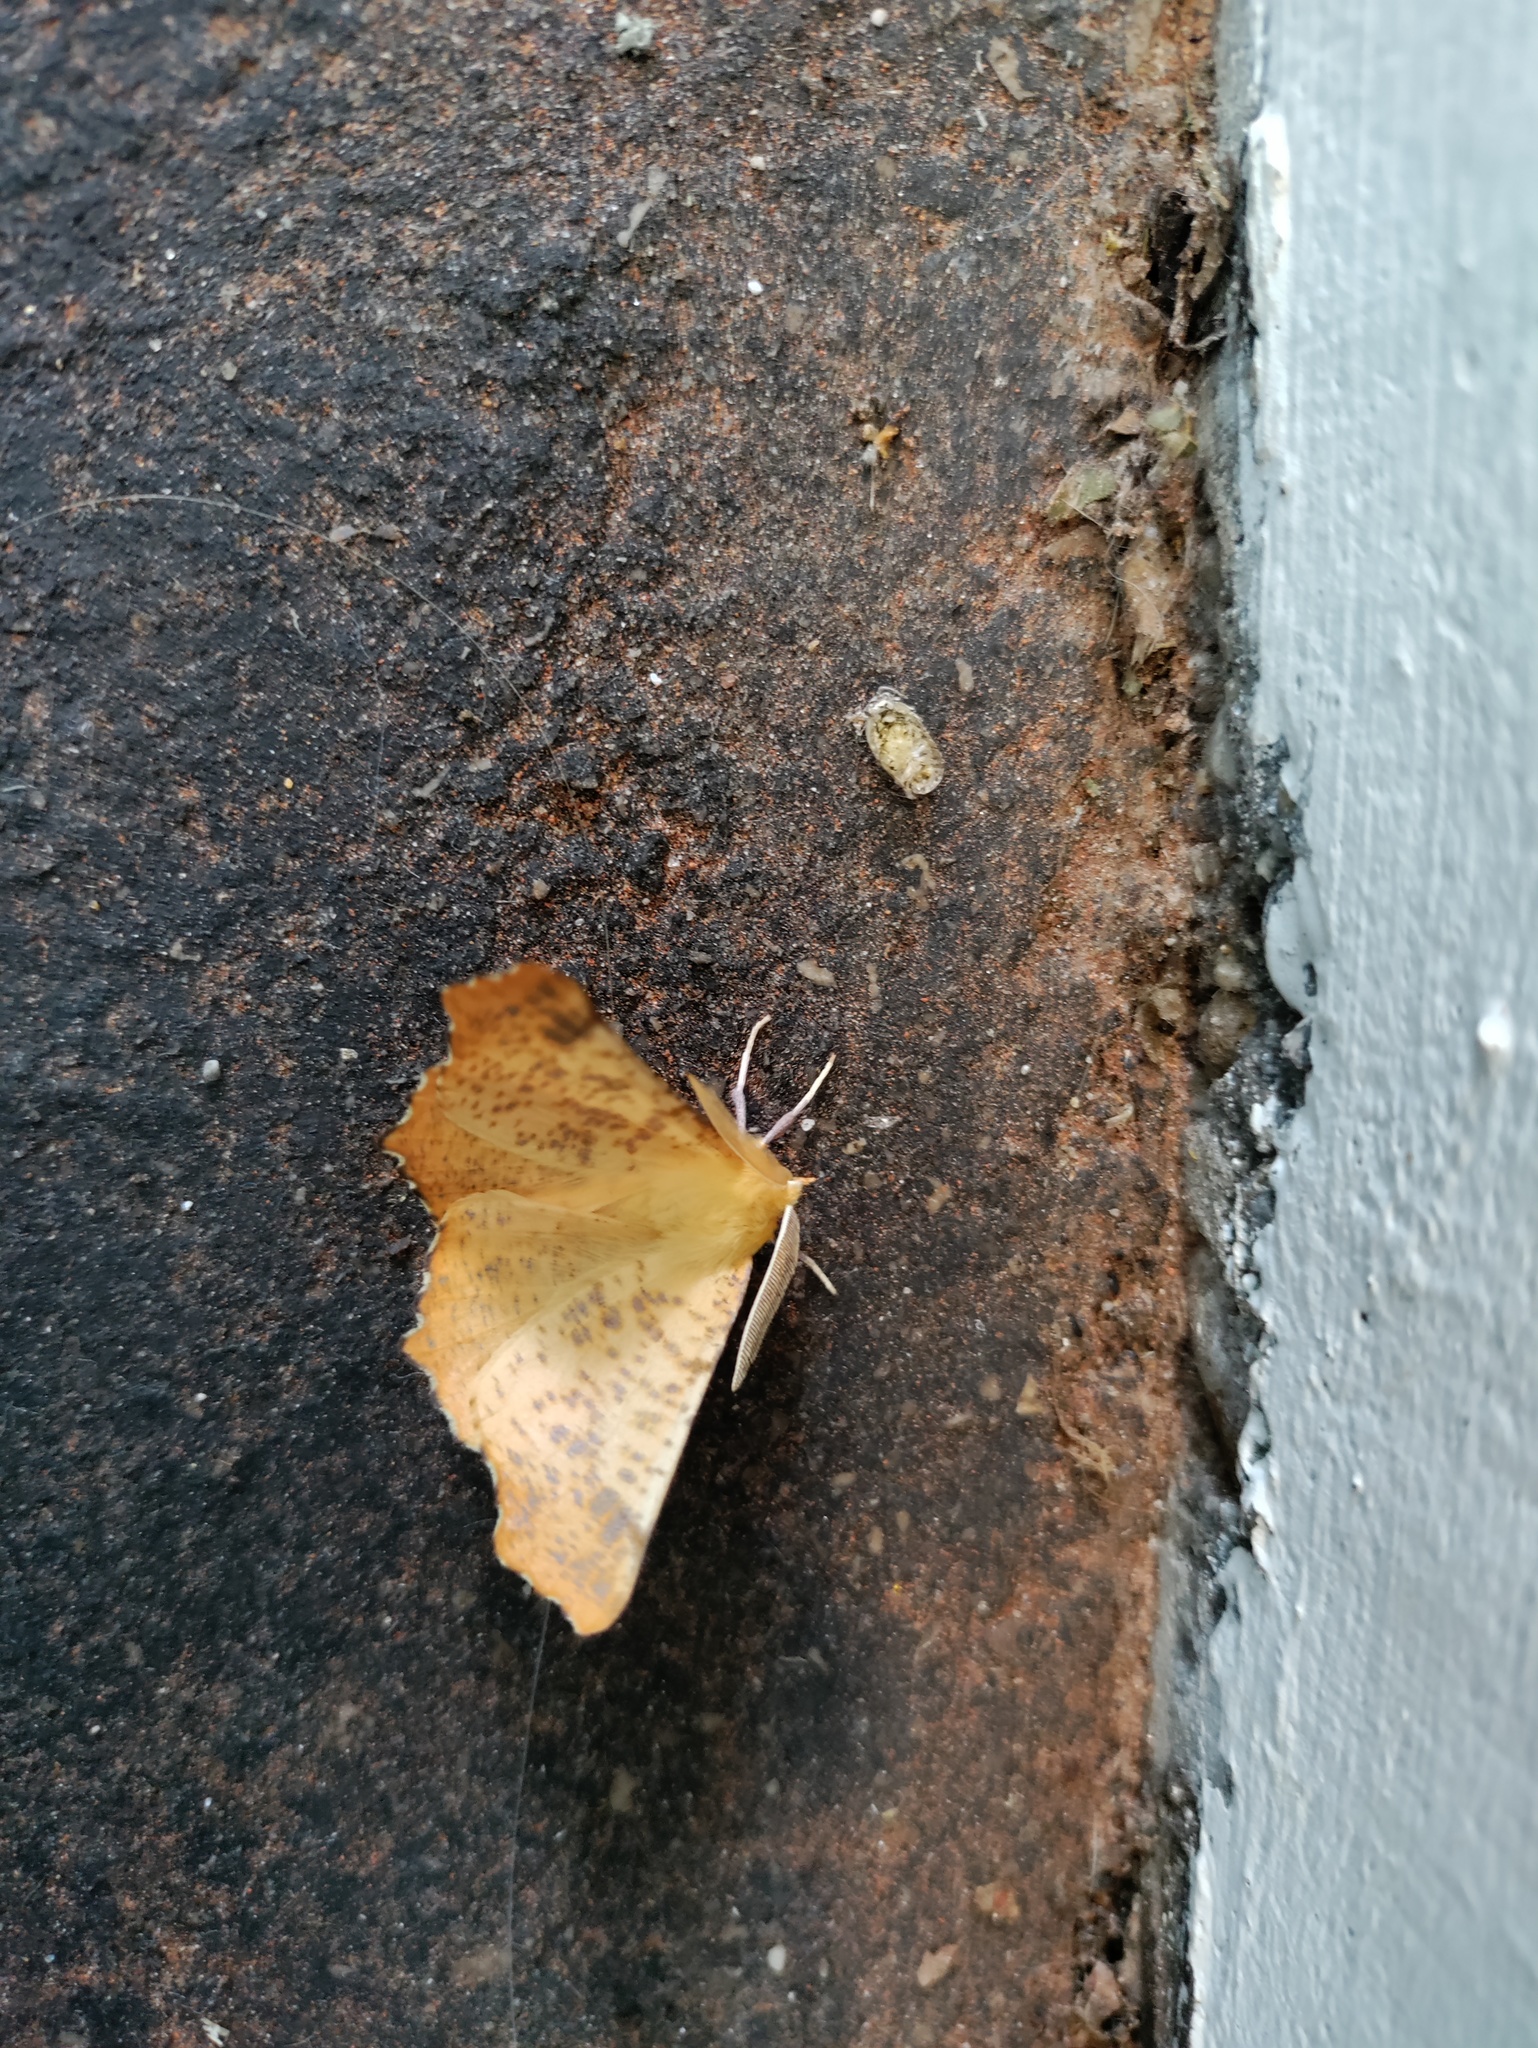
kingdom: Animalia
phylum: Arthropoda
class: Insecta
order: Lepidoptera
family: Geometridae
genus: Ennomos
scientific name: Ennomos autumnaria
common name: Large thorn
